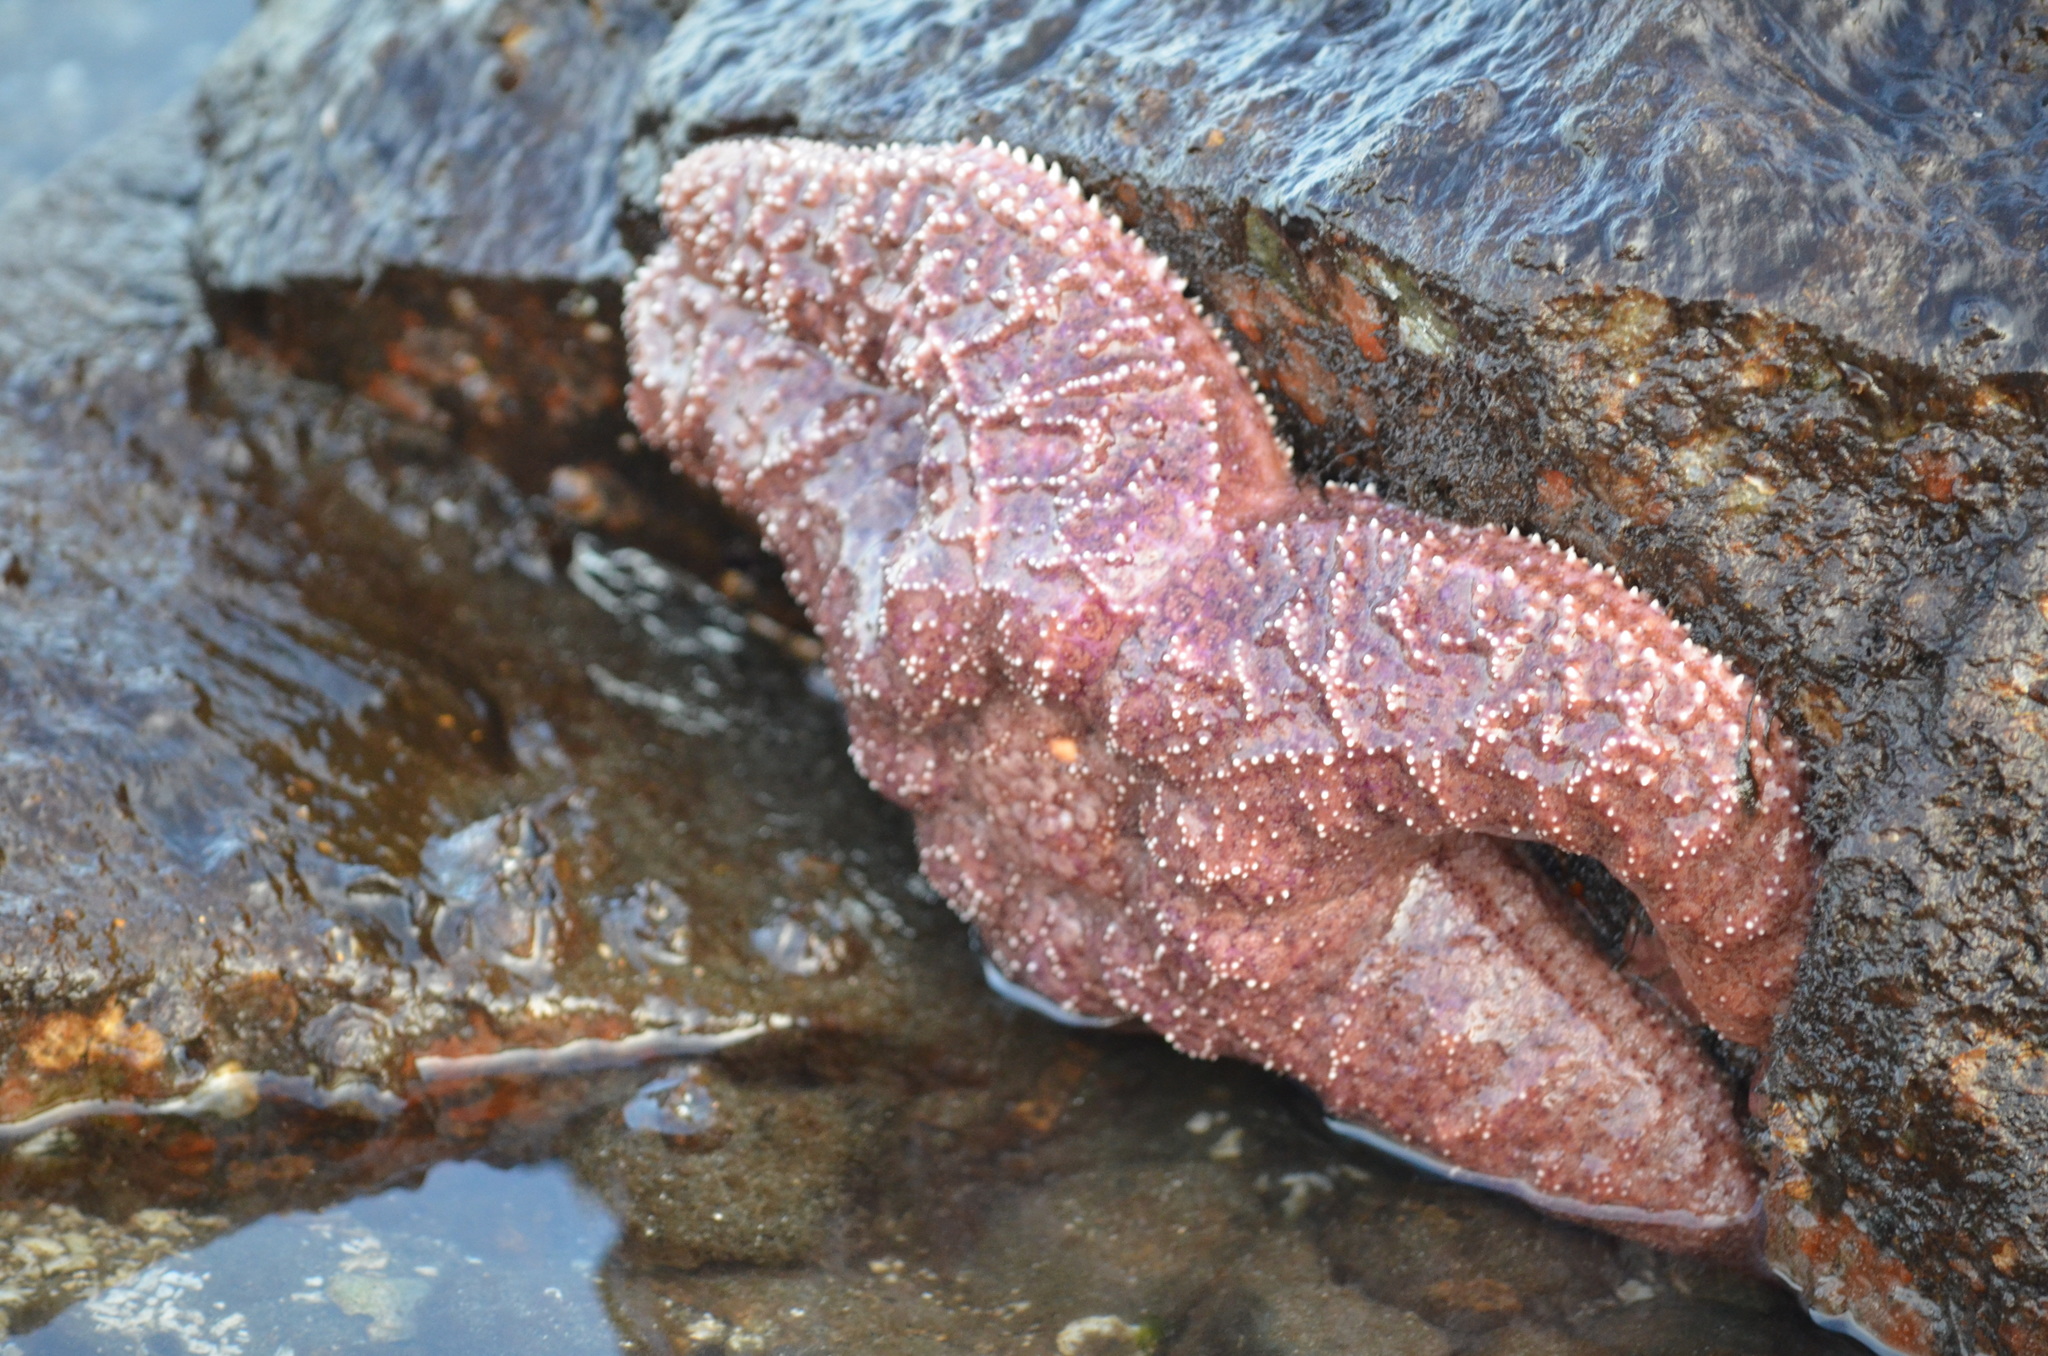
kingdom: Animalia
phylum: Echinodermata
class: Asteroidea
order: Forcipulatida
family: Asteriidae
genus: Pisaster
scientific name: Pisaster ochraceus
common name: Ochre stars
